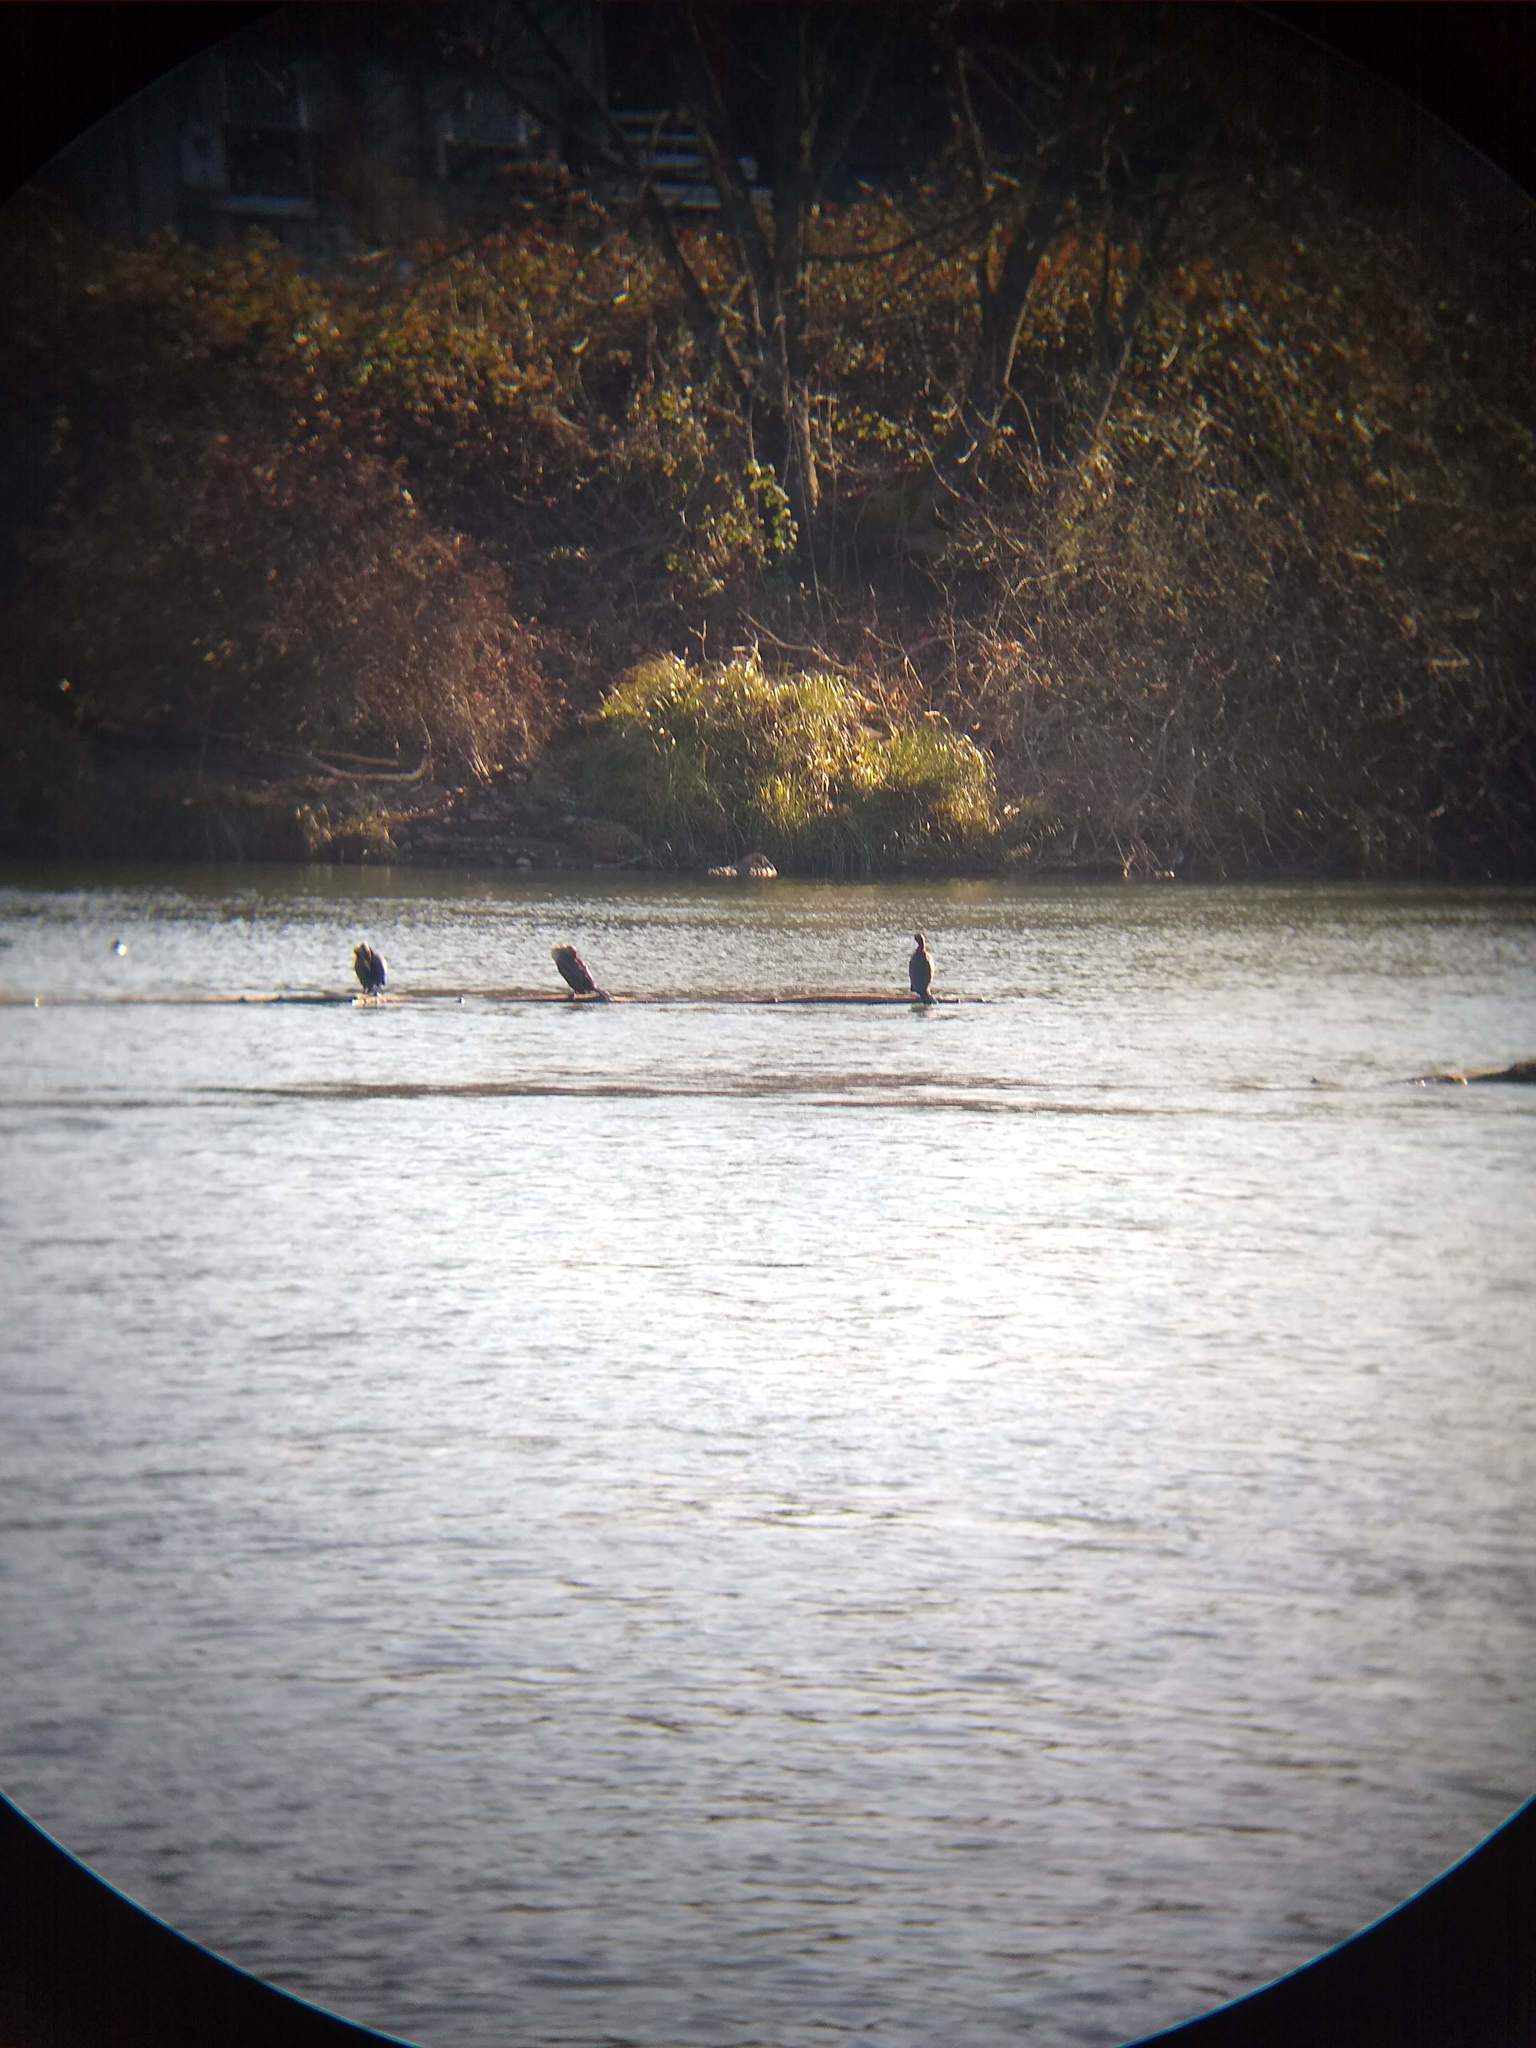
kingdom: Animalia
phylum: Chordata
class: Aves
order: Suliformes
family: Phalacrocoracidae
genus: Phalacrocorax
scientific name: Phalacrocorax auritus
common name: Double-crested cormorant
